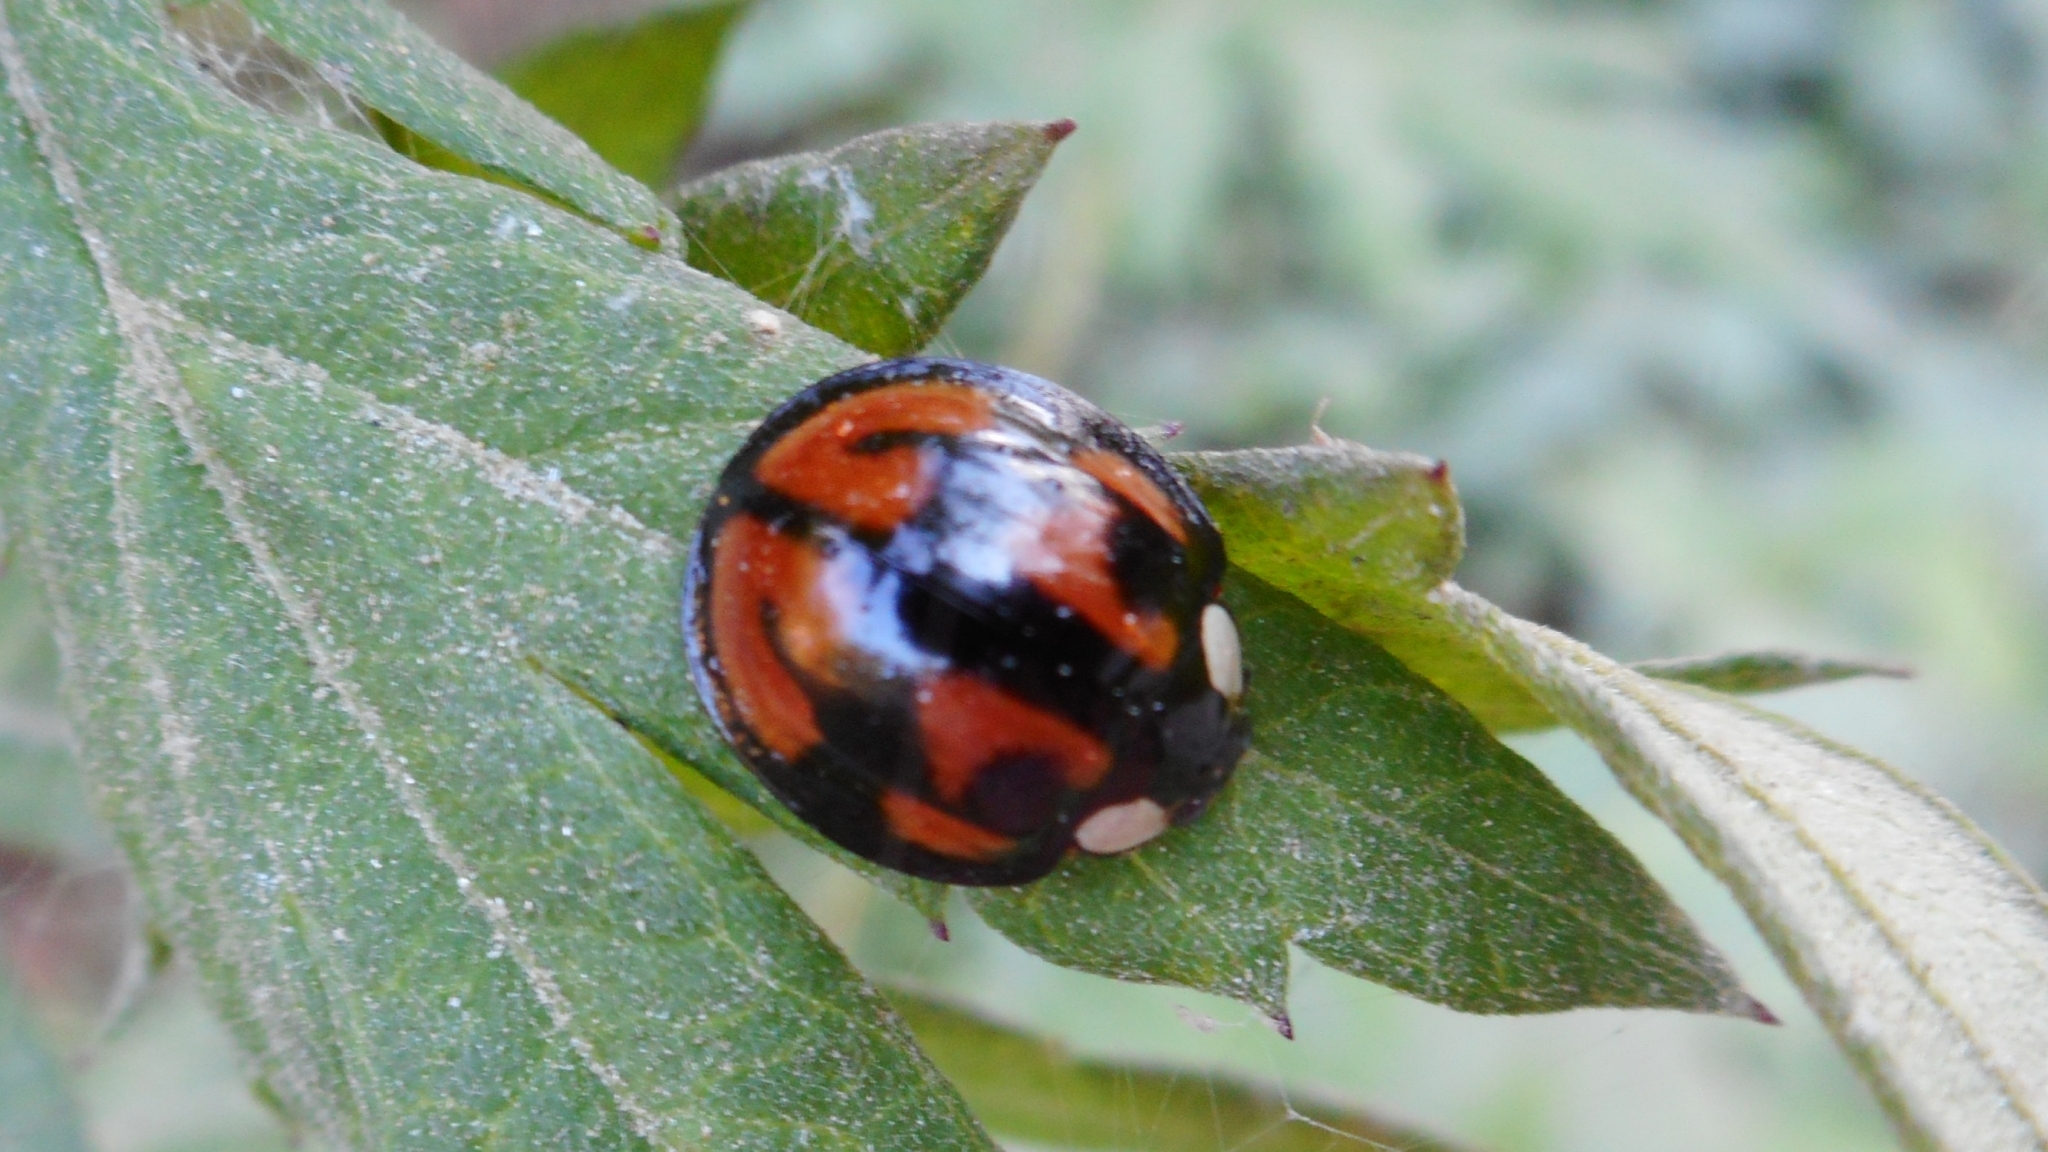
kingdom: Animalia
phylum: Arthropoda
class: Insecta
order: Coleoptera
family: Coccinellidae
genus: Aiolocaria
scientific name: Aiolocaria hexaspilota
